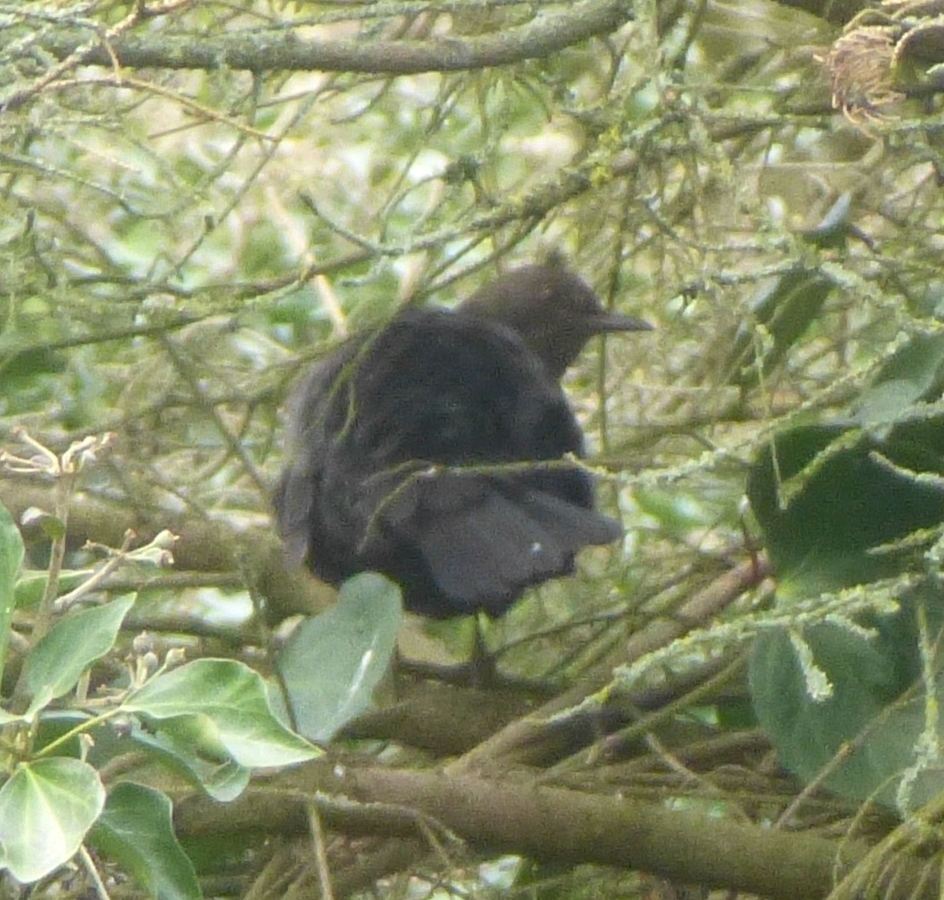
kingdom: Animalia
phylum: Chordata
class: Aves
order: Passeriformes
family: Turdidae
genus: Turdus
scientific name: Turdus merula
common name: Common blackbird
